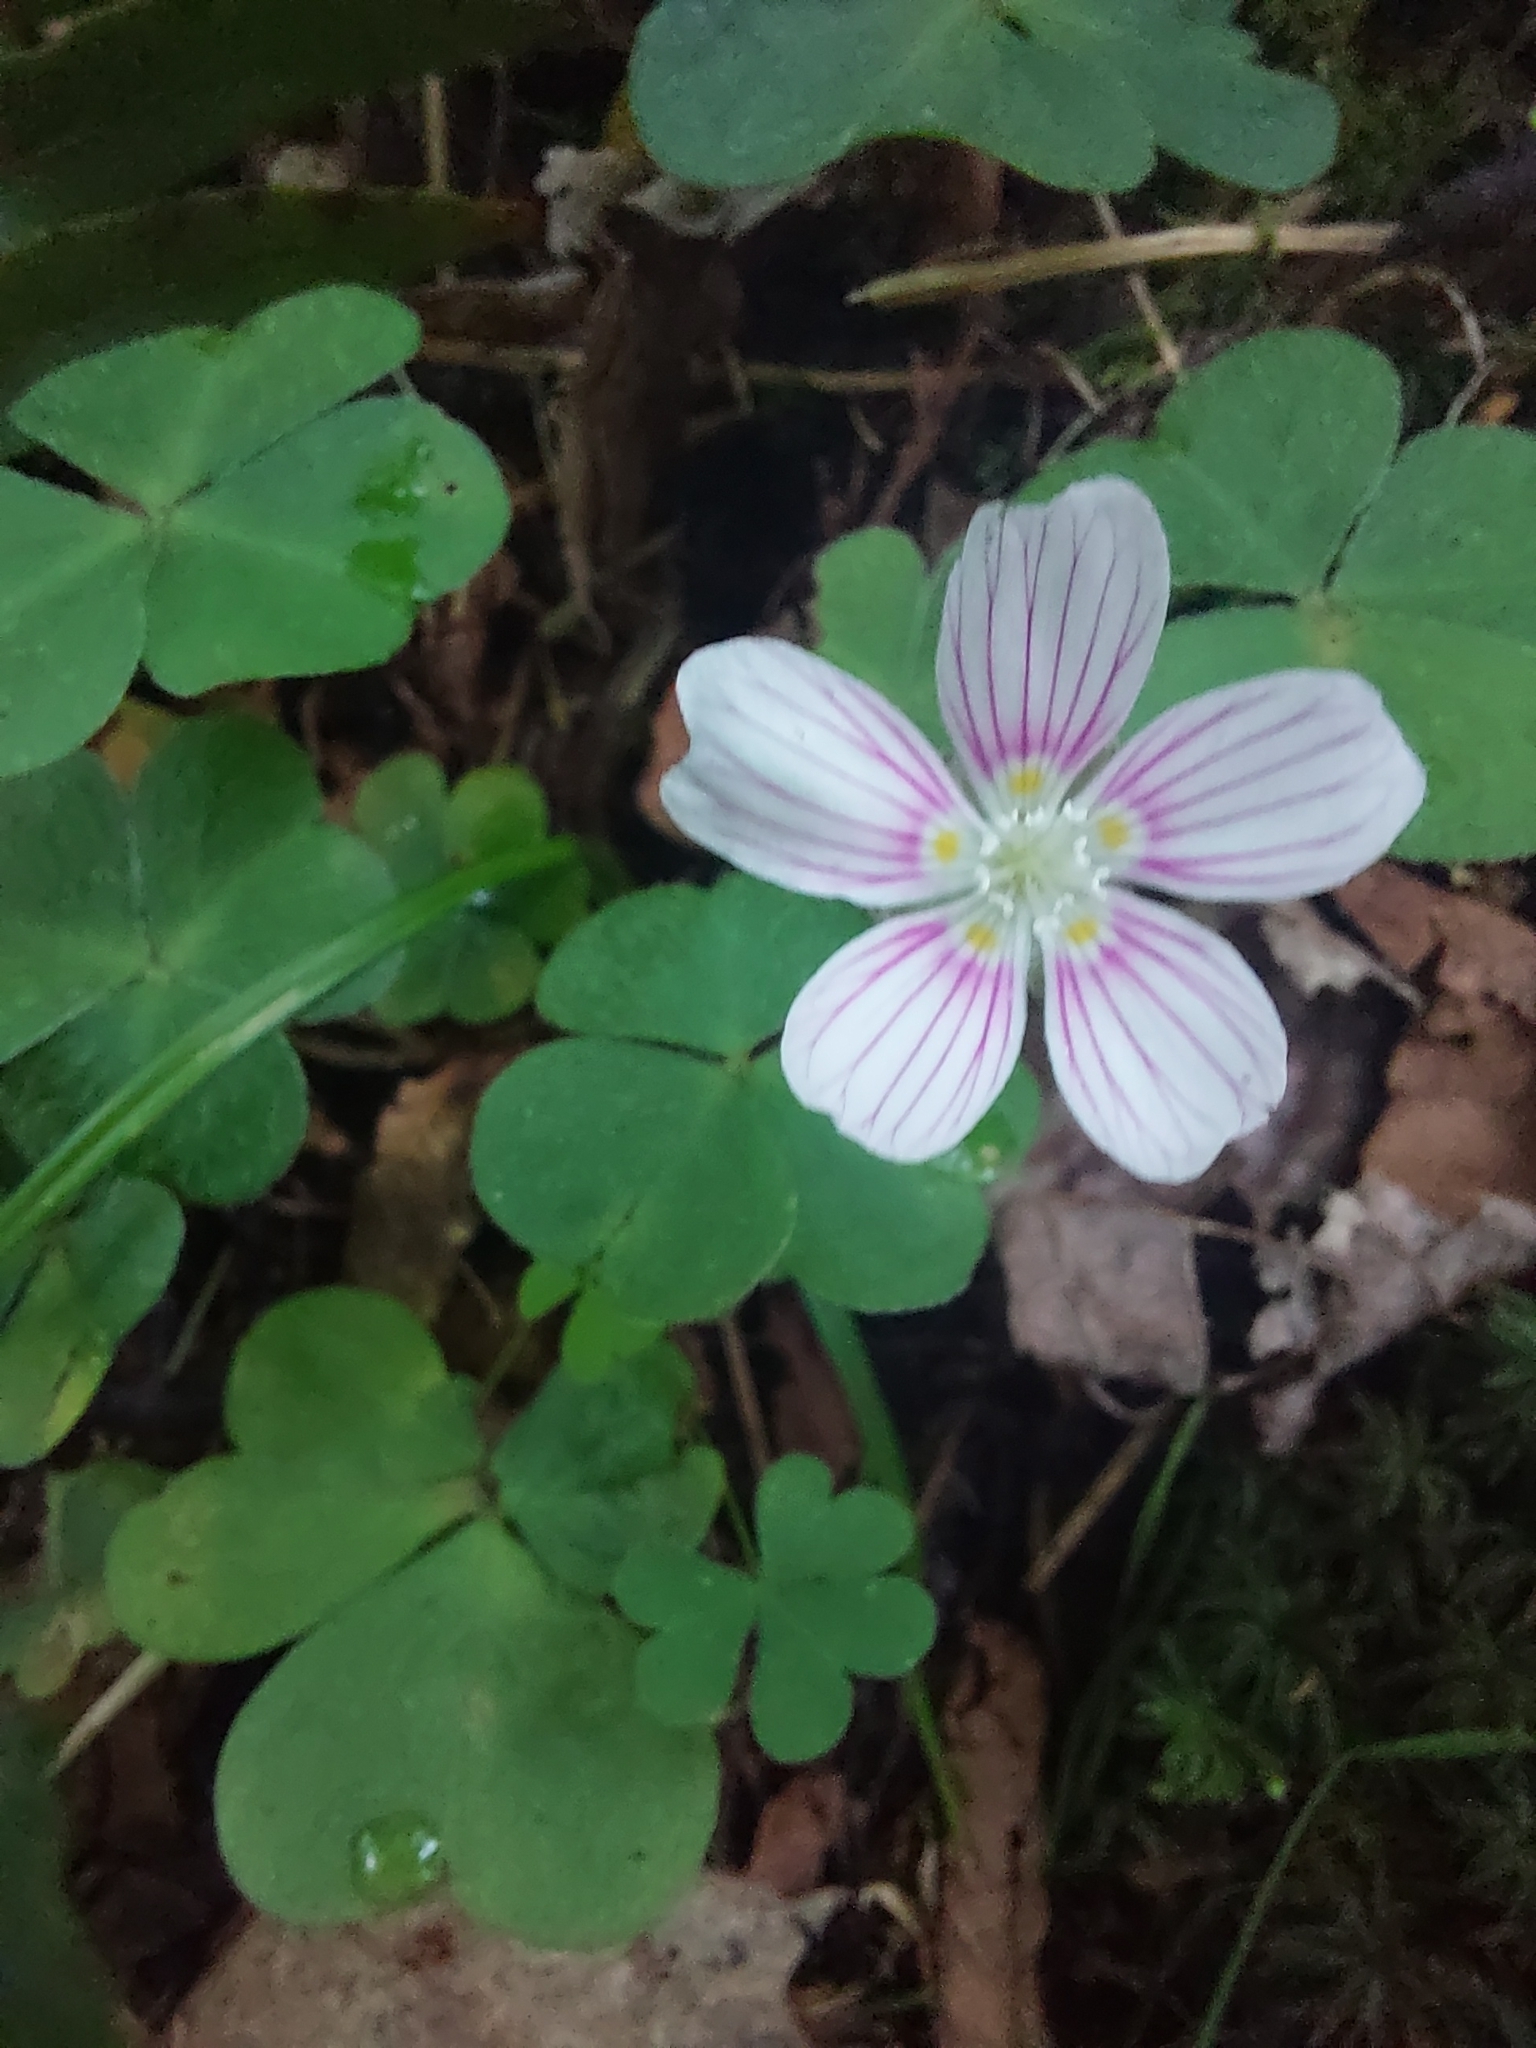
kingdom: Plantae
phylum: Tracheophyta
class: Magnoliopsida
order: Oxalidales
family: Oxalidaceae
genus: Oxalis
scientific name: Oxalis montana
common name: American wood-sorrel
